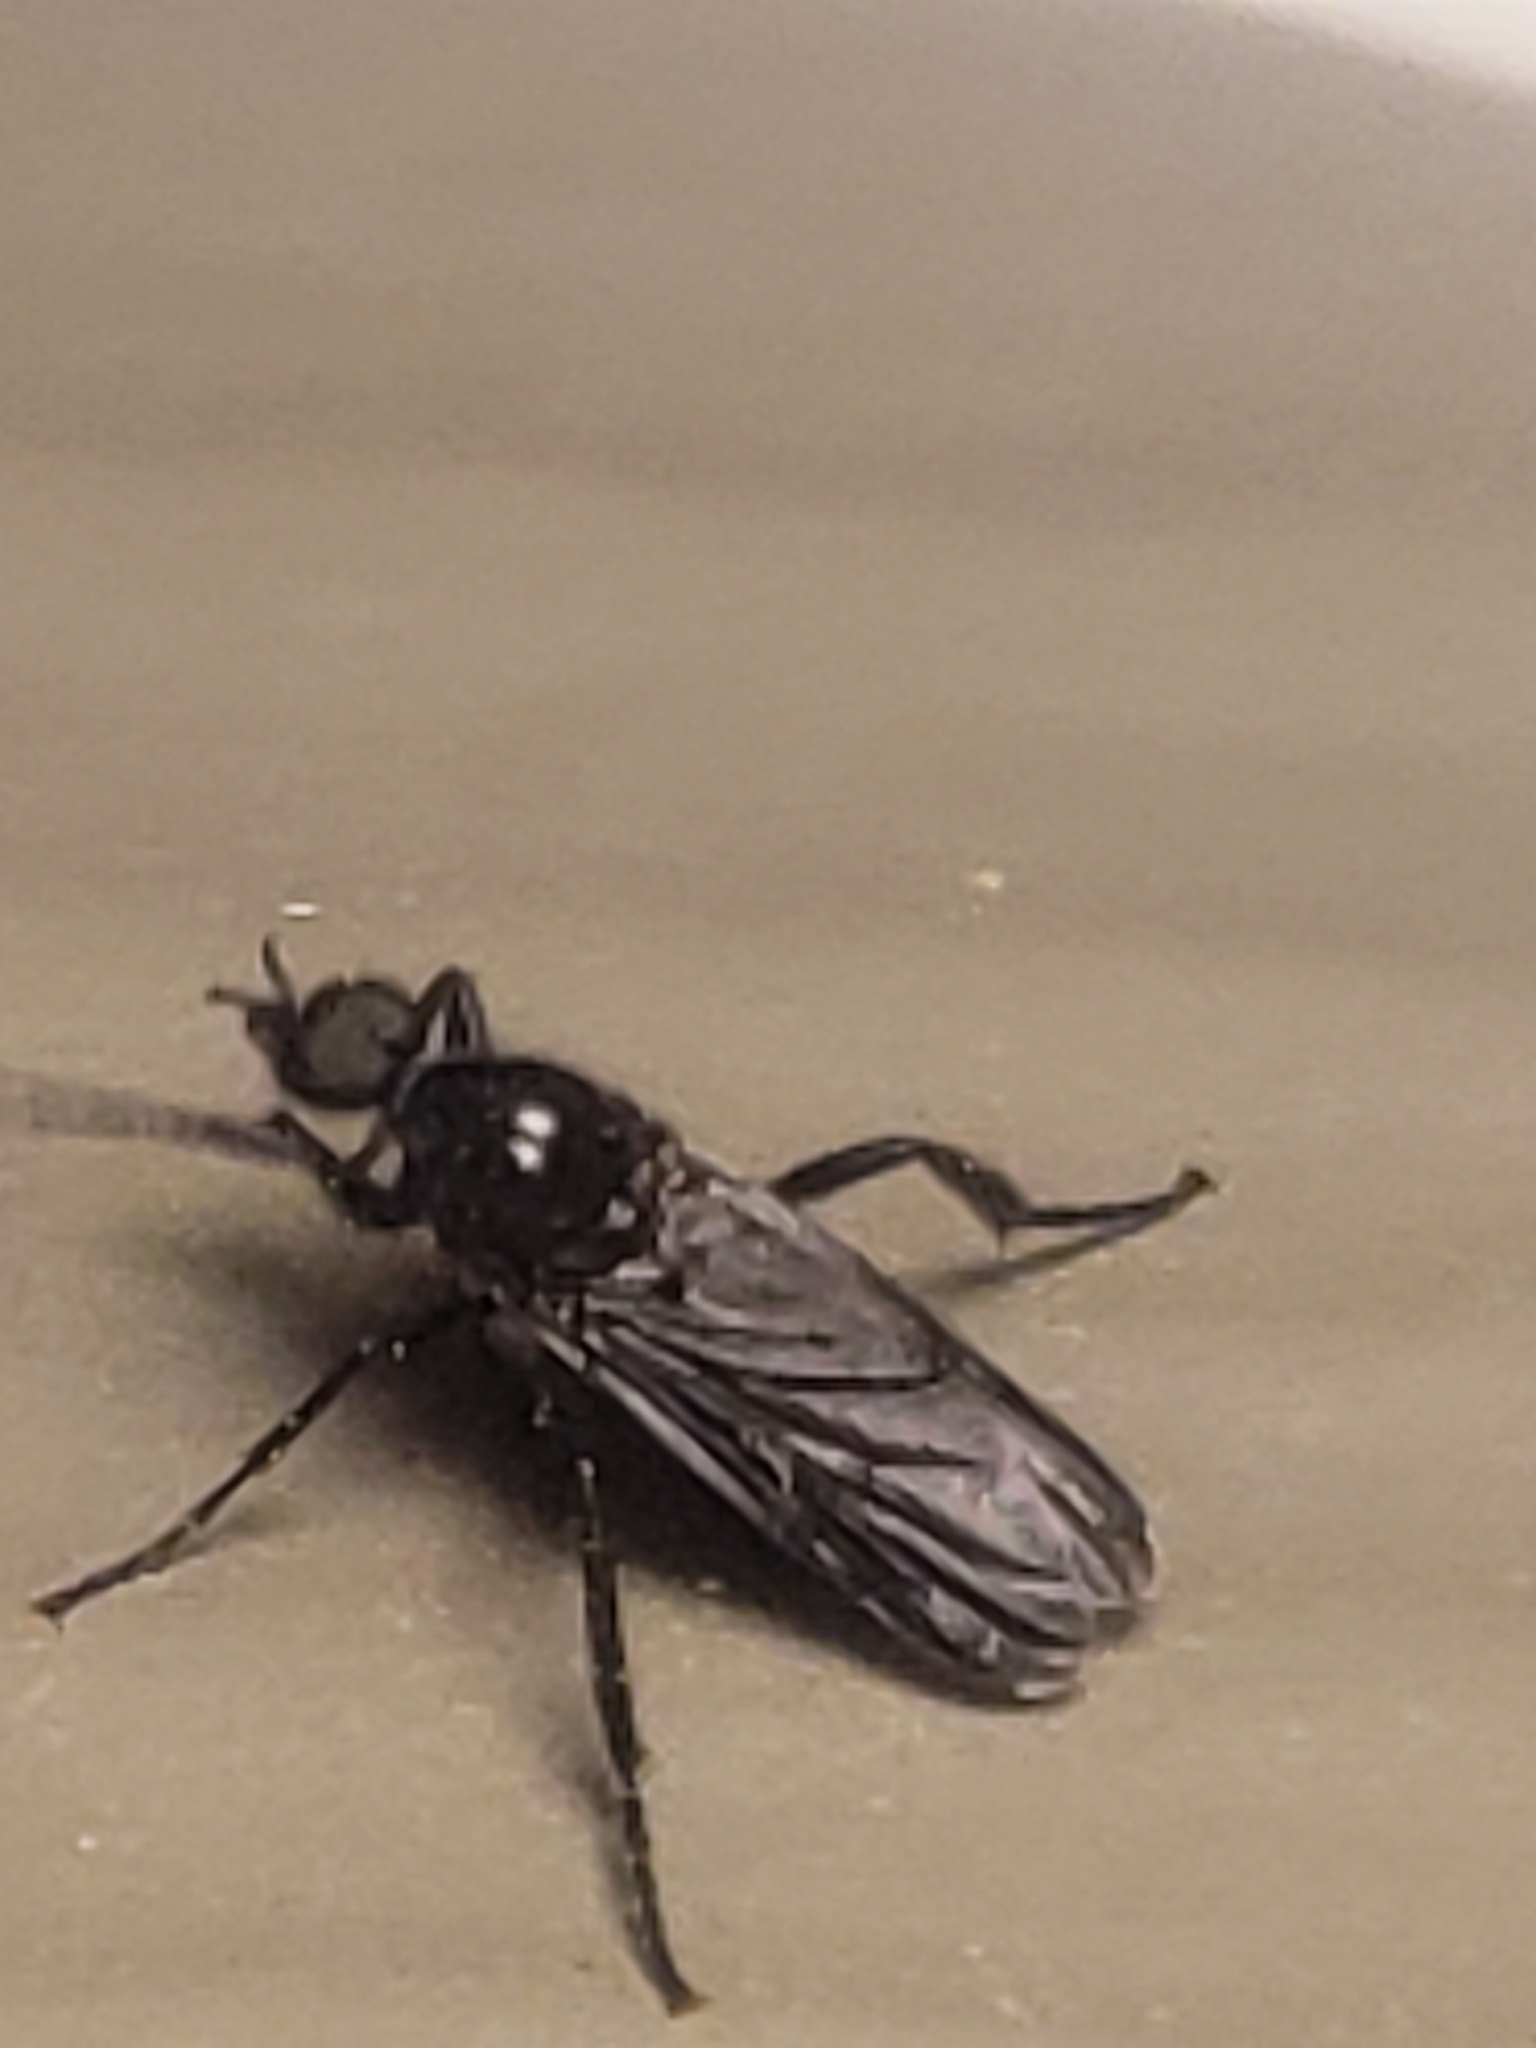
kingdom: Animalia
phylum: Arthropoda
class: Insecta
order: Diptera
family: Bibionidae
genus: Bibio
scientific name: Bibio superfluus
